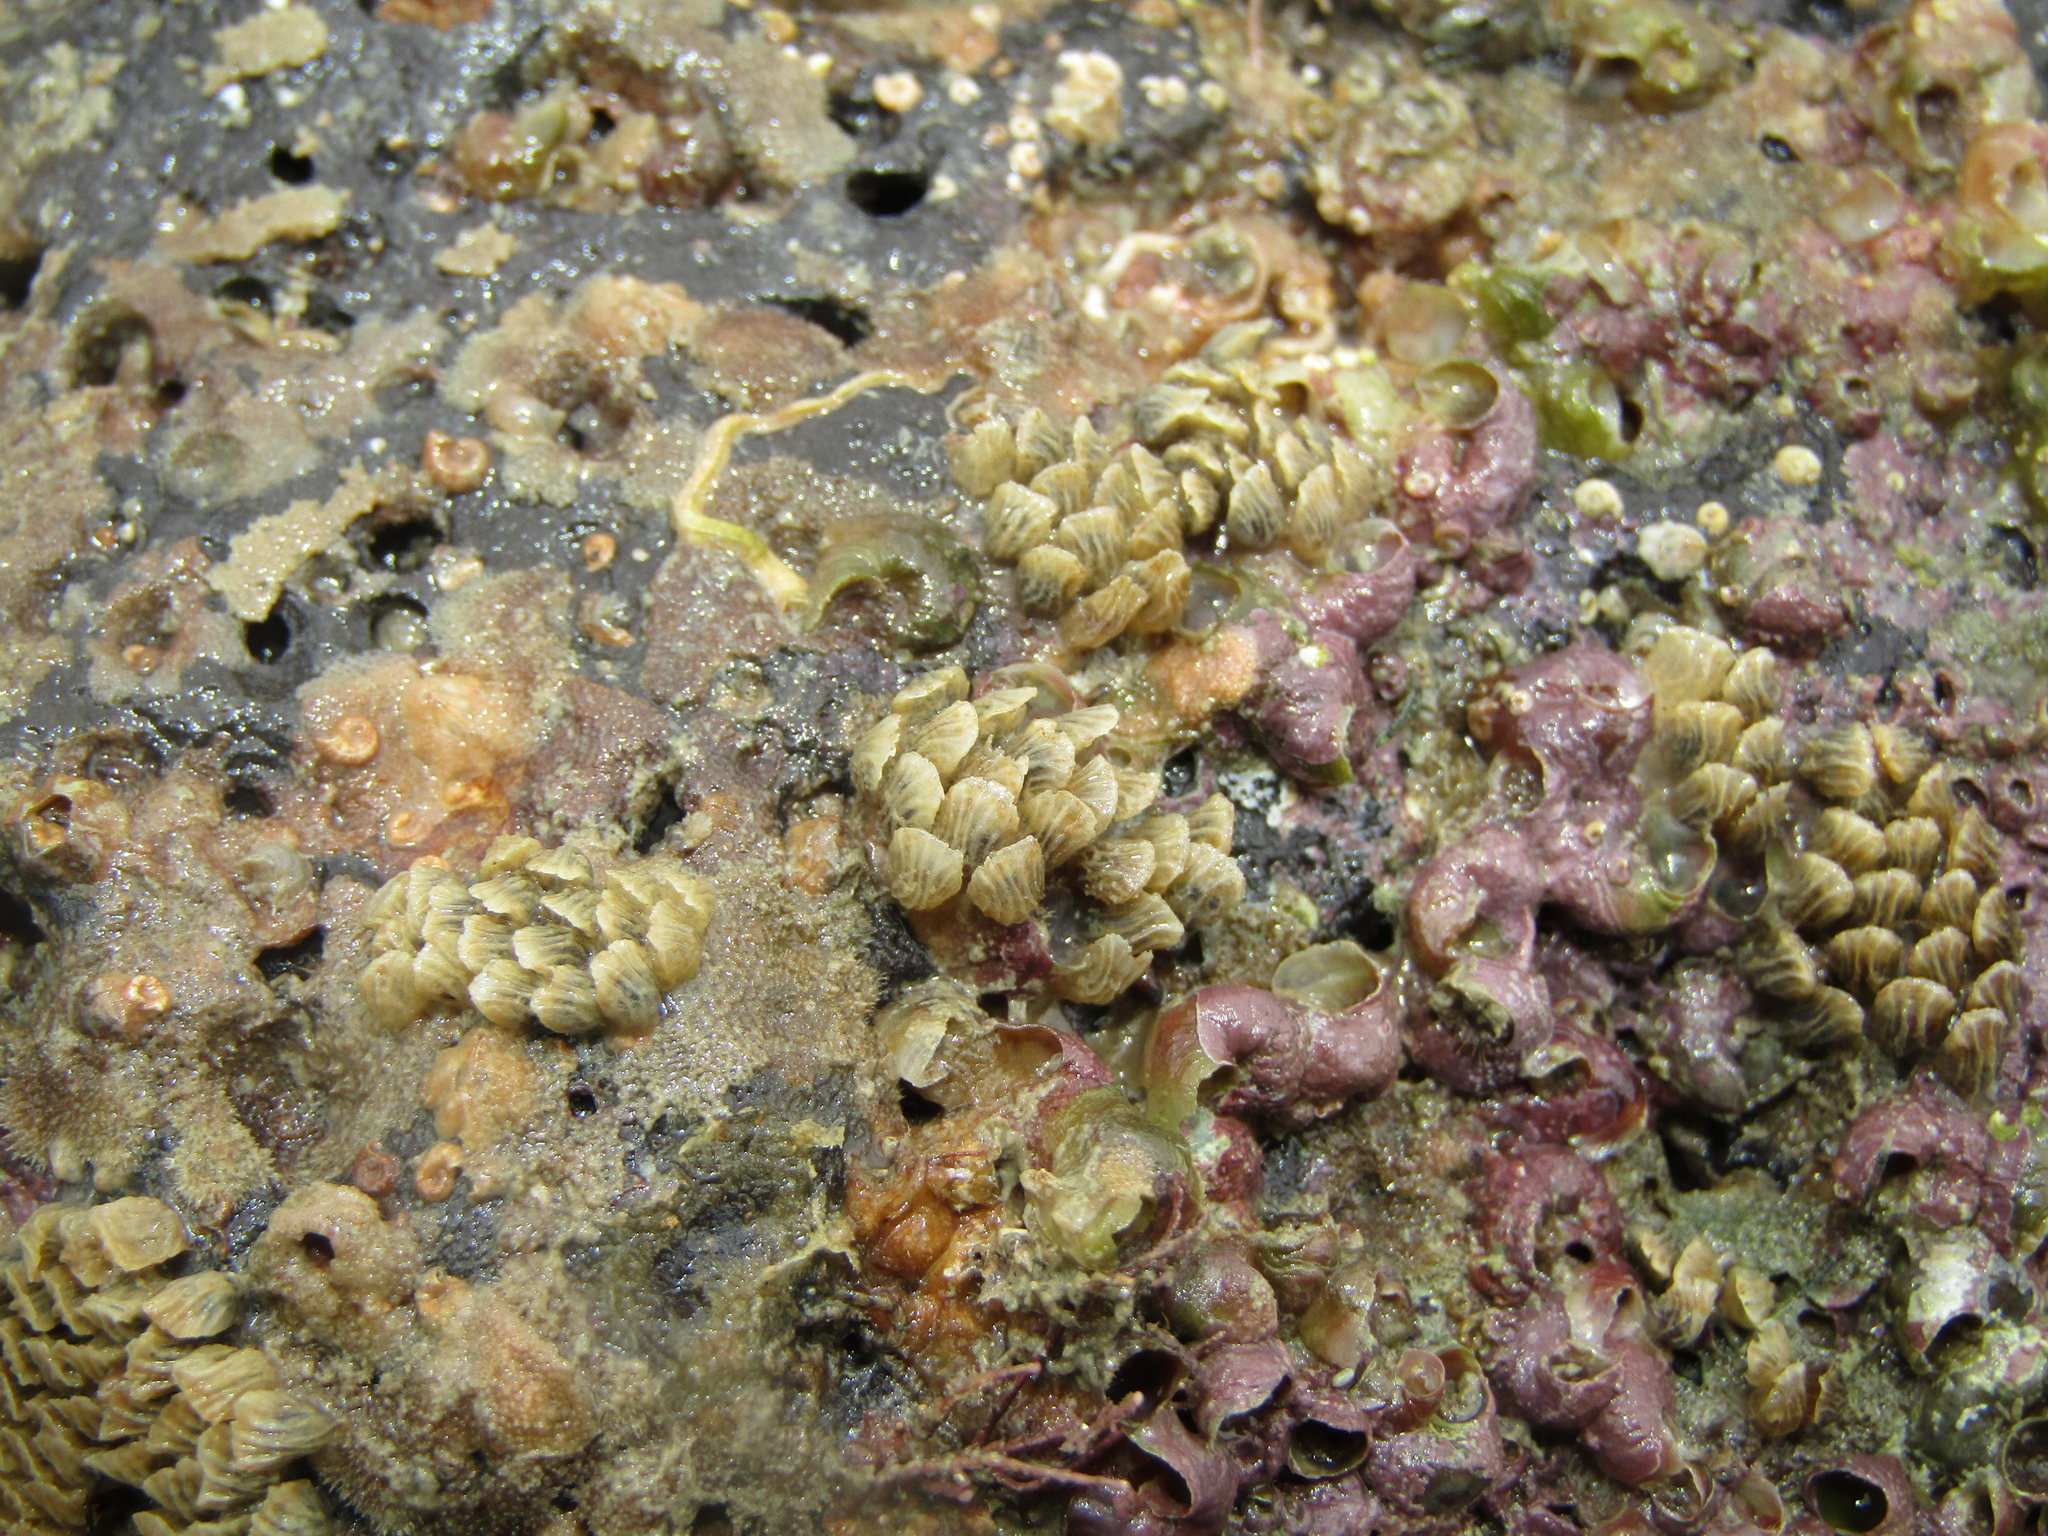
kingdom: Animalia
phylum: Mollusca
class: Gastropoda
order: Neogastropoda
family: Cominellidae
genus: Cominella
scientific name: Cominella virgata
